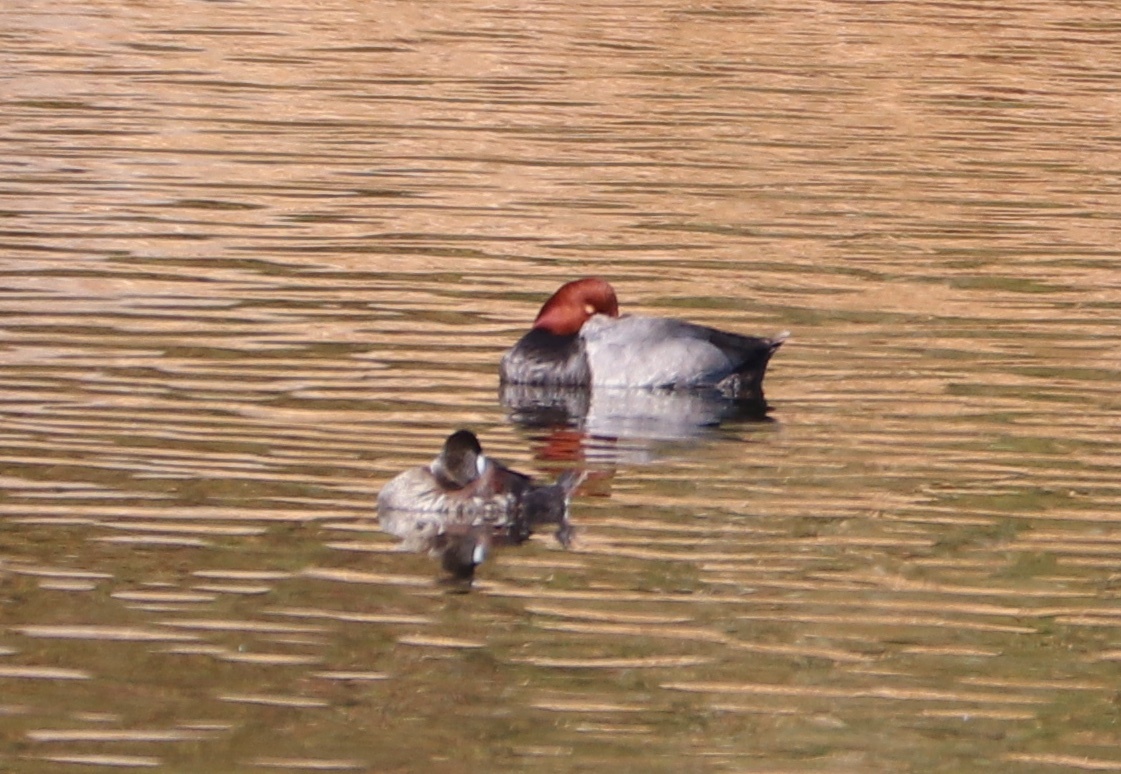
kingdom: Animalia
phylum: Chordata
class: Aves
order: Anseriformes
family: Anatidae
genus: Aythya
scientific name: Aythya americana
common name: Redhead
